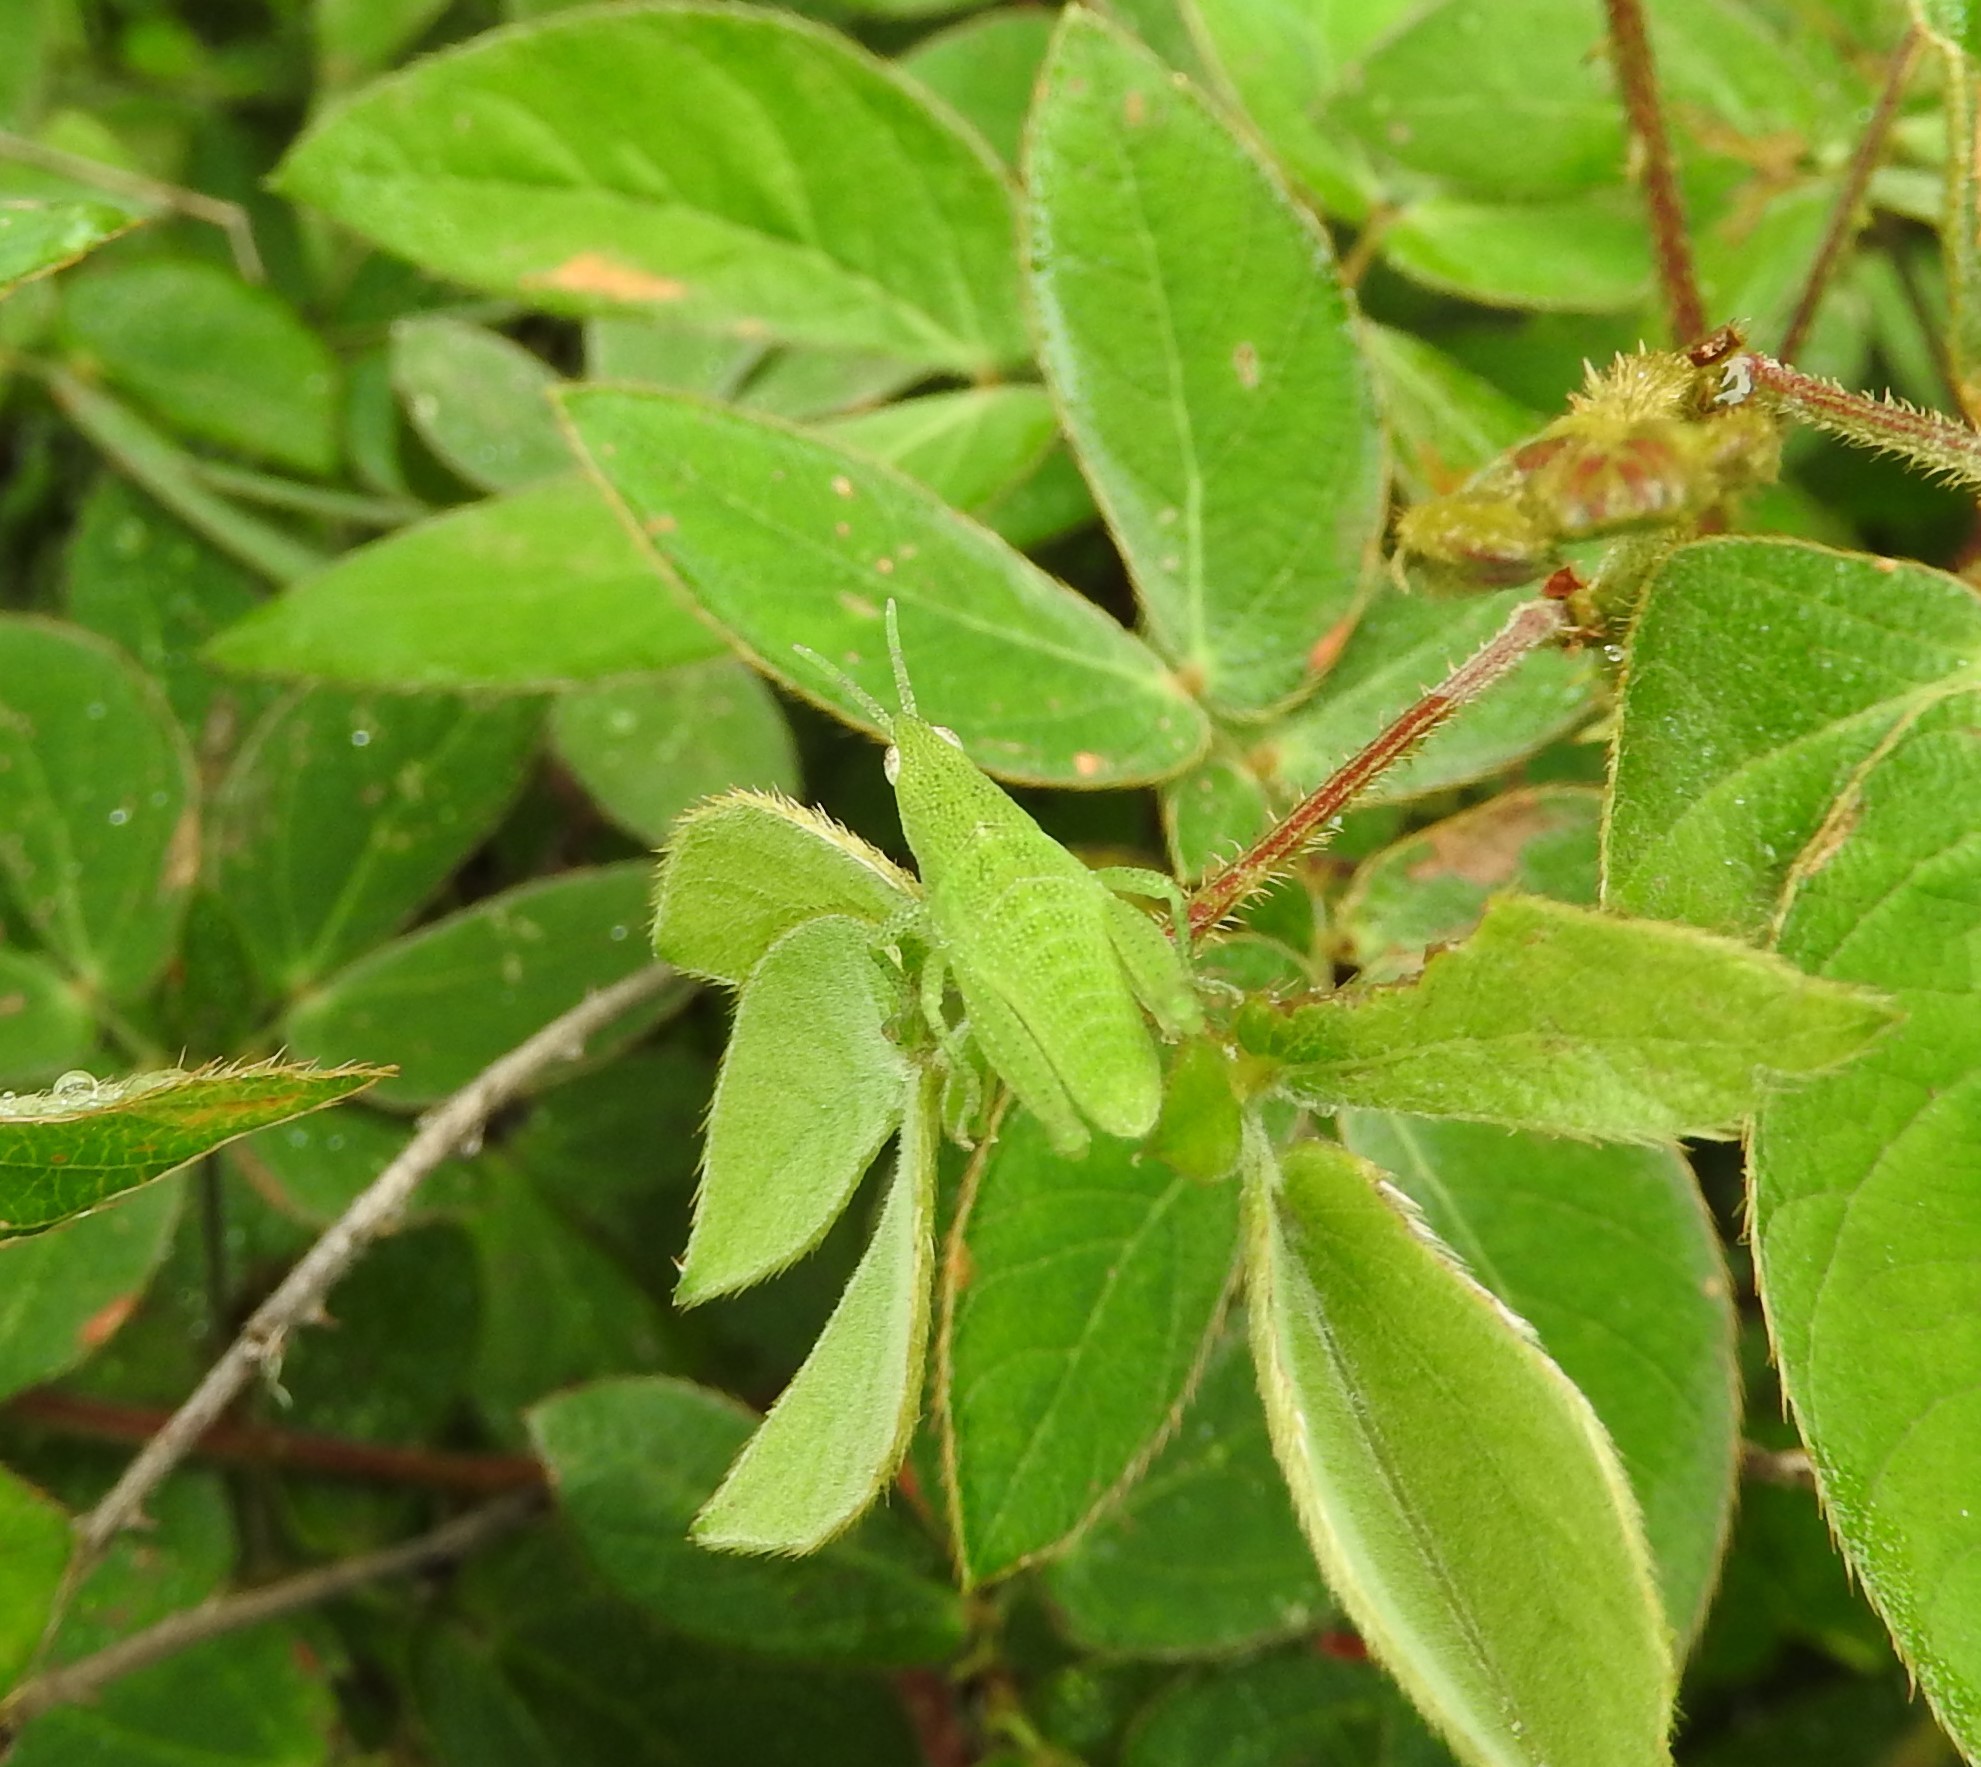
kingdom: Plantae
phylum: Tracheophyta
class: Magnoliopsida
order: Fabales
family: Fabaceae
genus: Mimosa
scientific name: Mimosa albida
